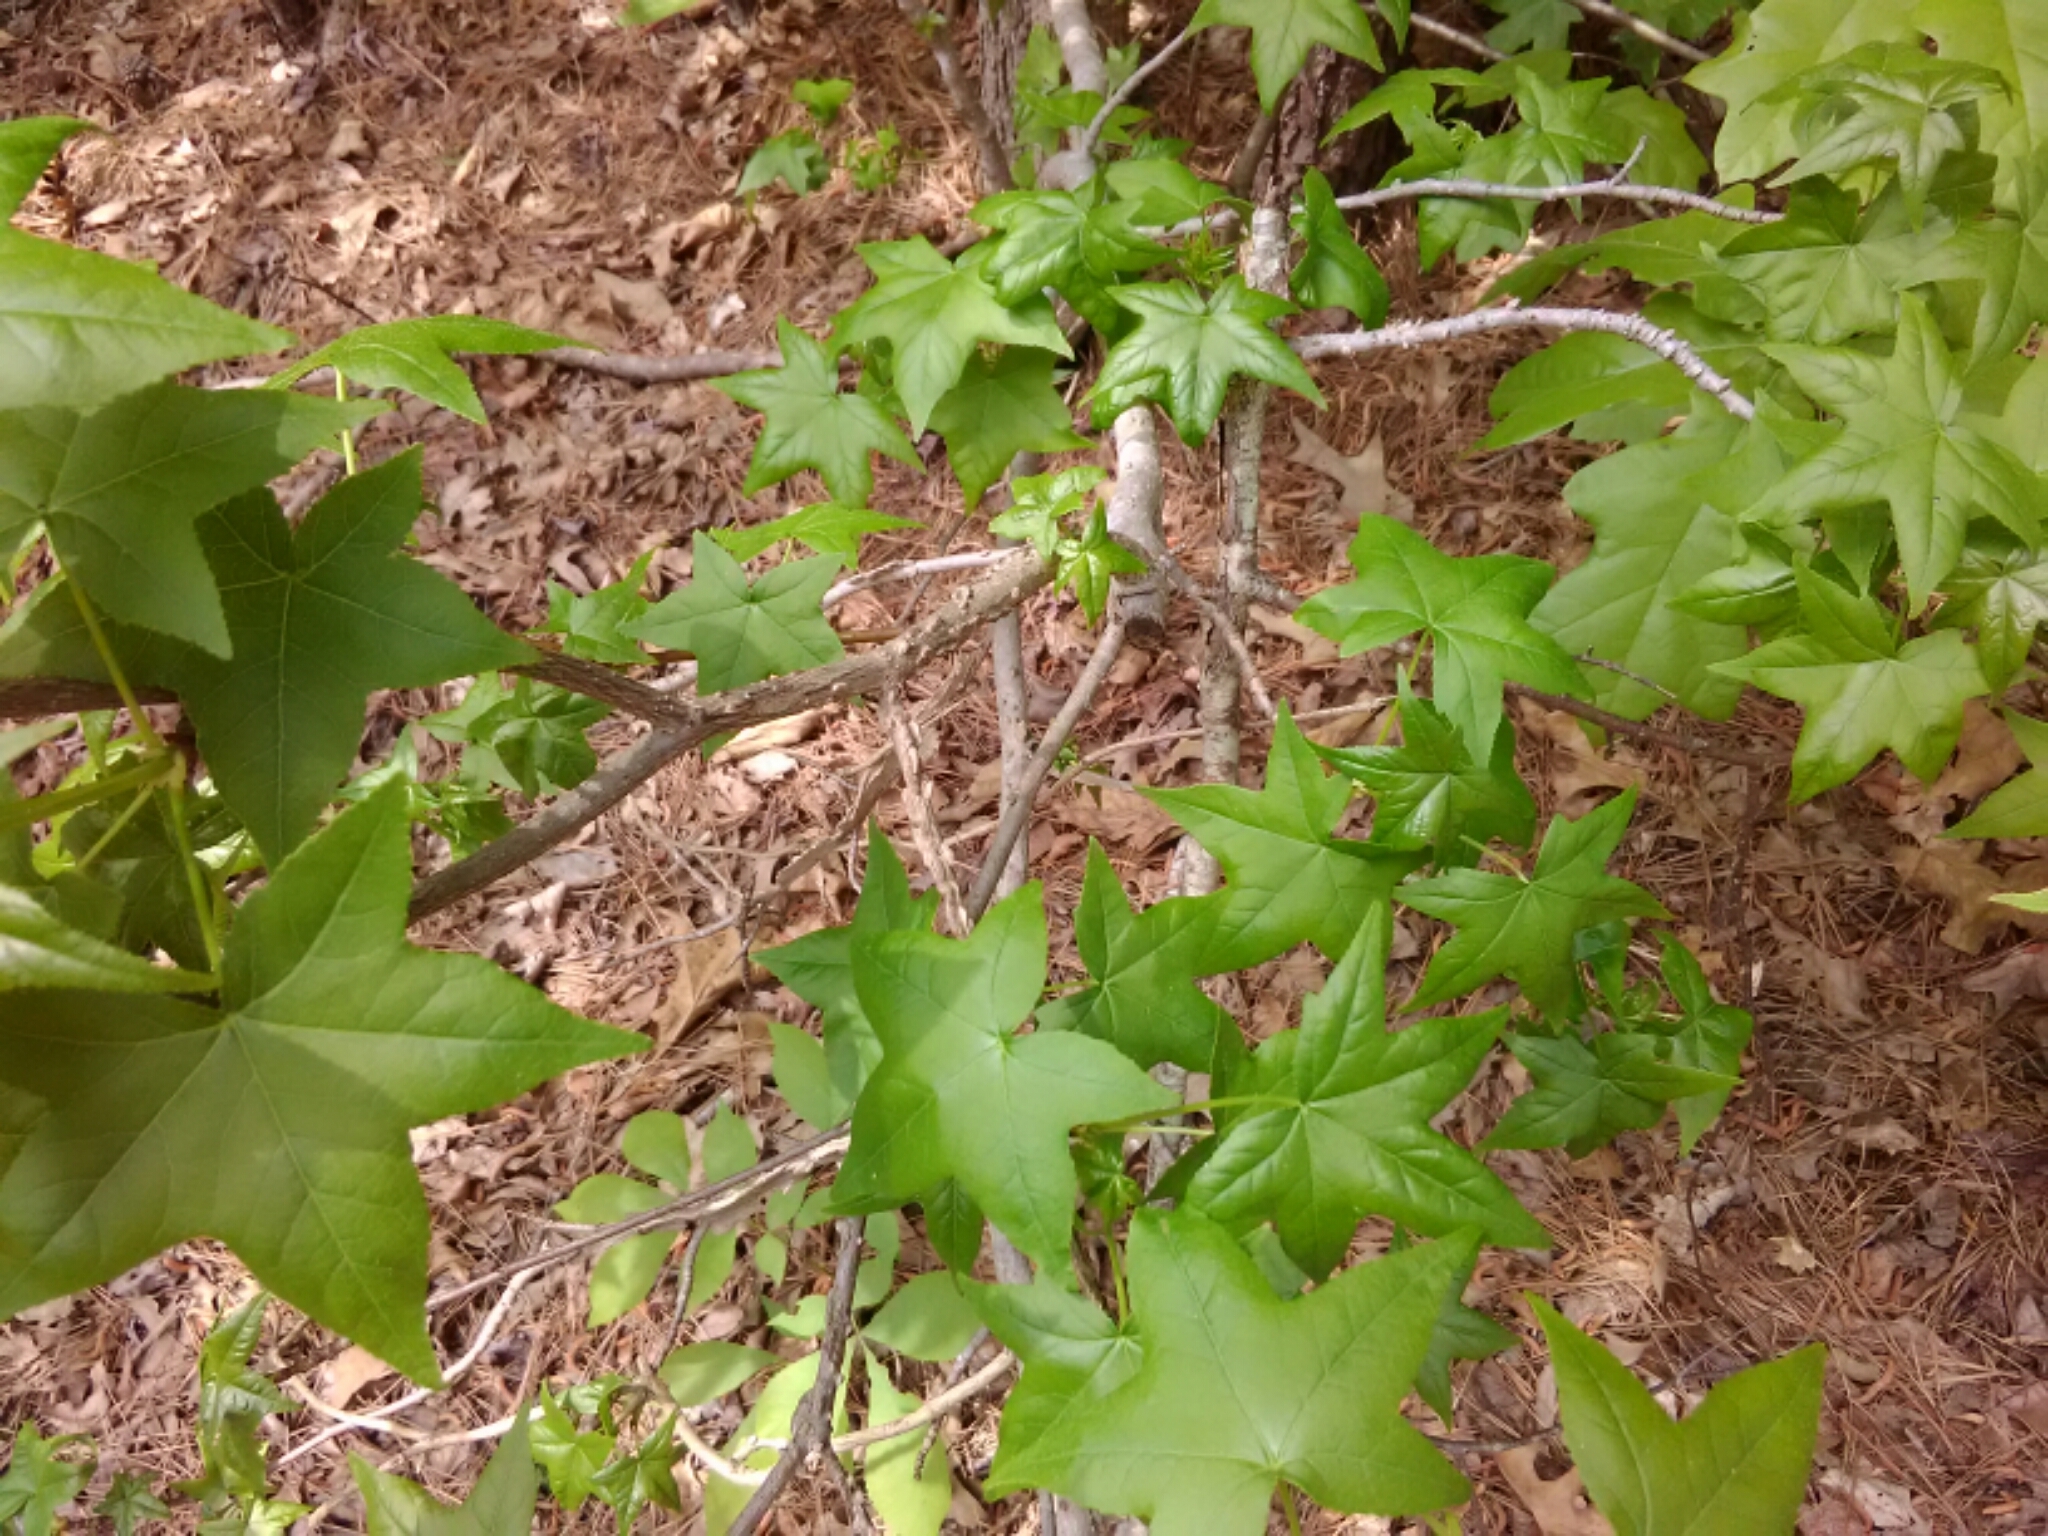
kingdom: Plantae
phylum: Tracheophyta
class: Magnoliopsida
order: Saxifragales
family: Altingiaceae
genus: Liquidambar
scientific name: Liquidambar styraciflua
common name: Sweet gum
